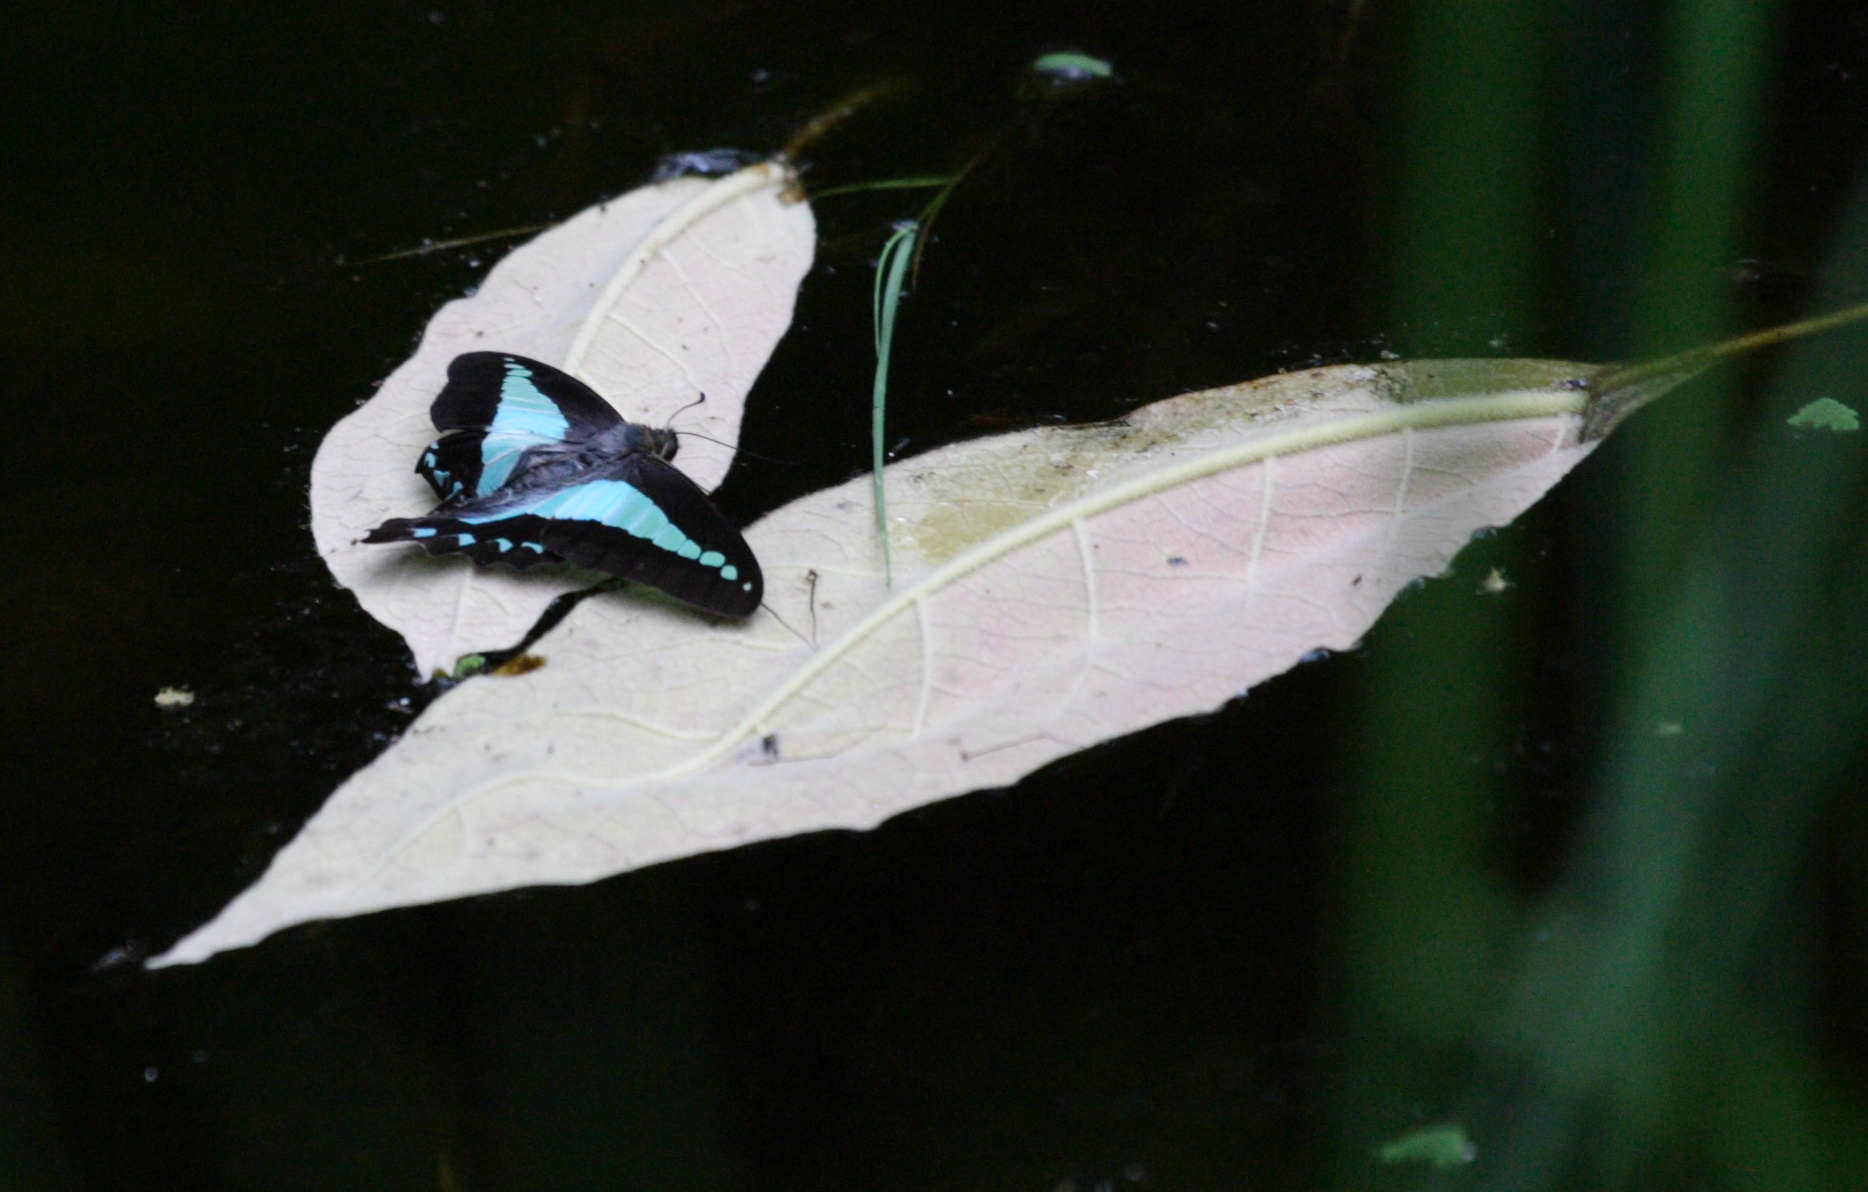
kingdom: Animalia
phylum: Arthropoda
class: Insecta
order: Lepidoptera
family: Papilionidae
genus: Graphium
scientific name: Graphium
